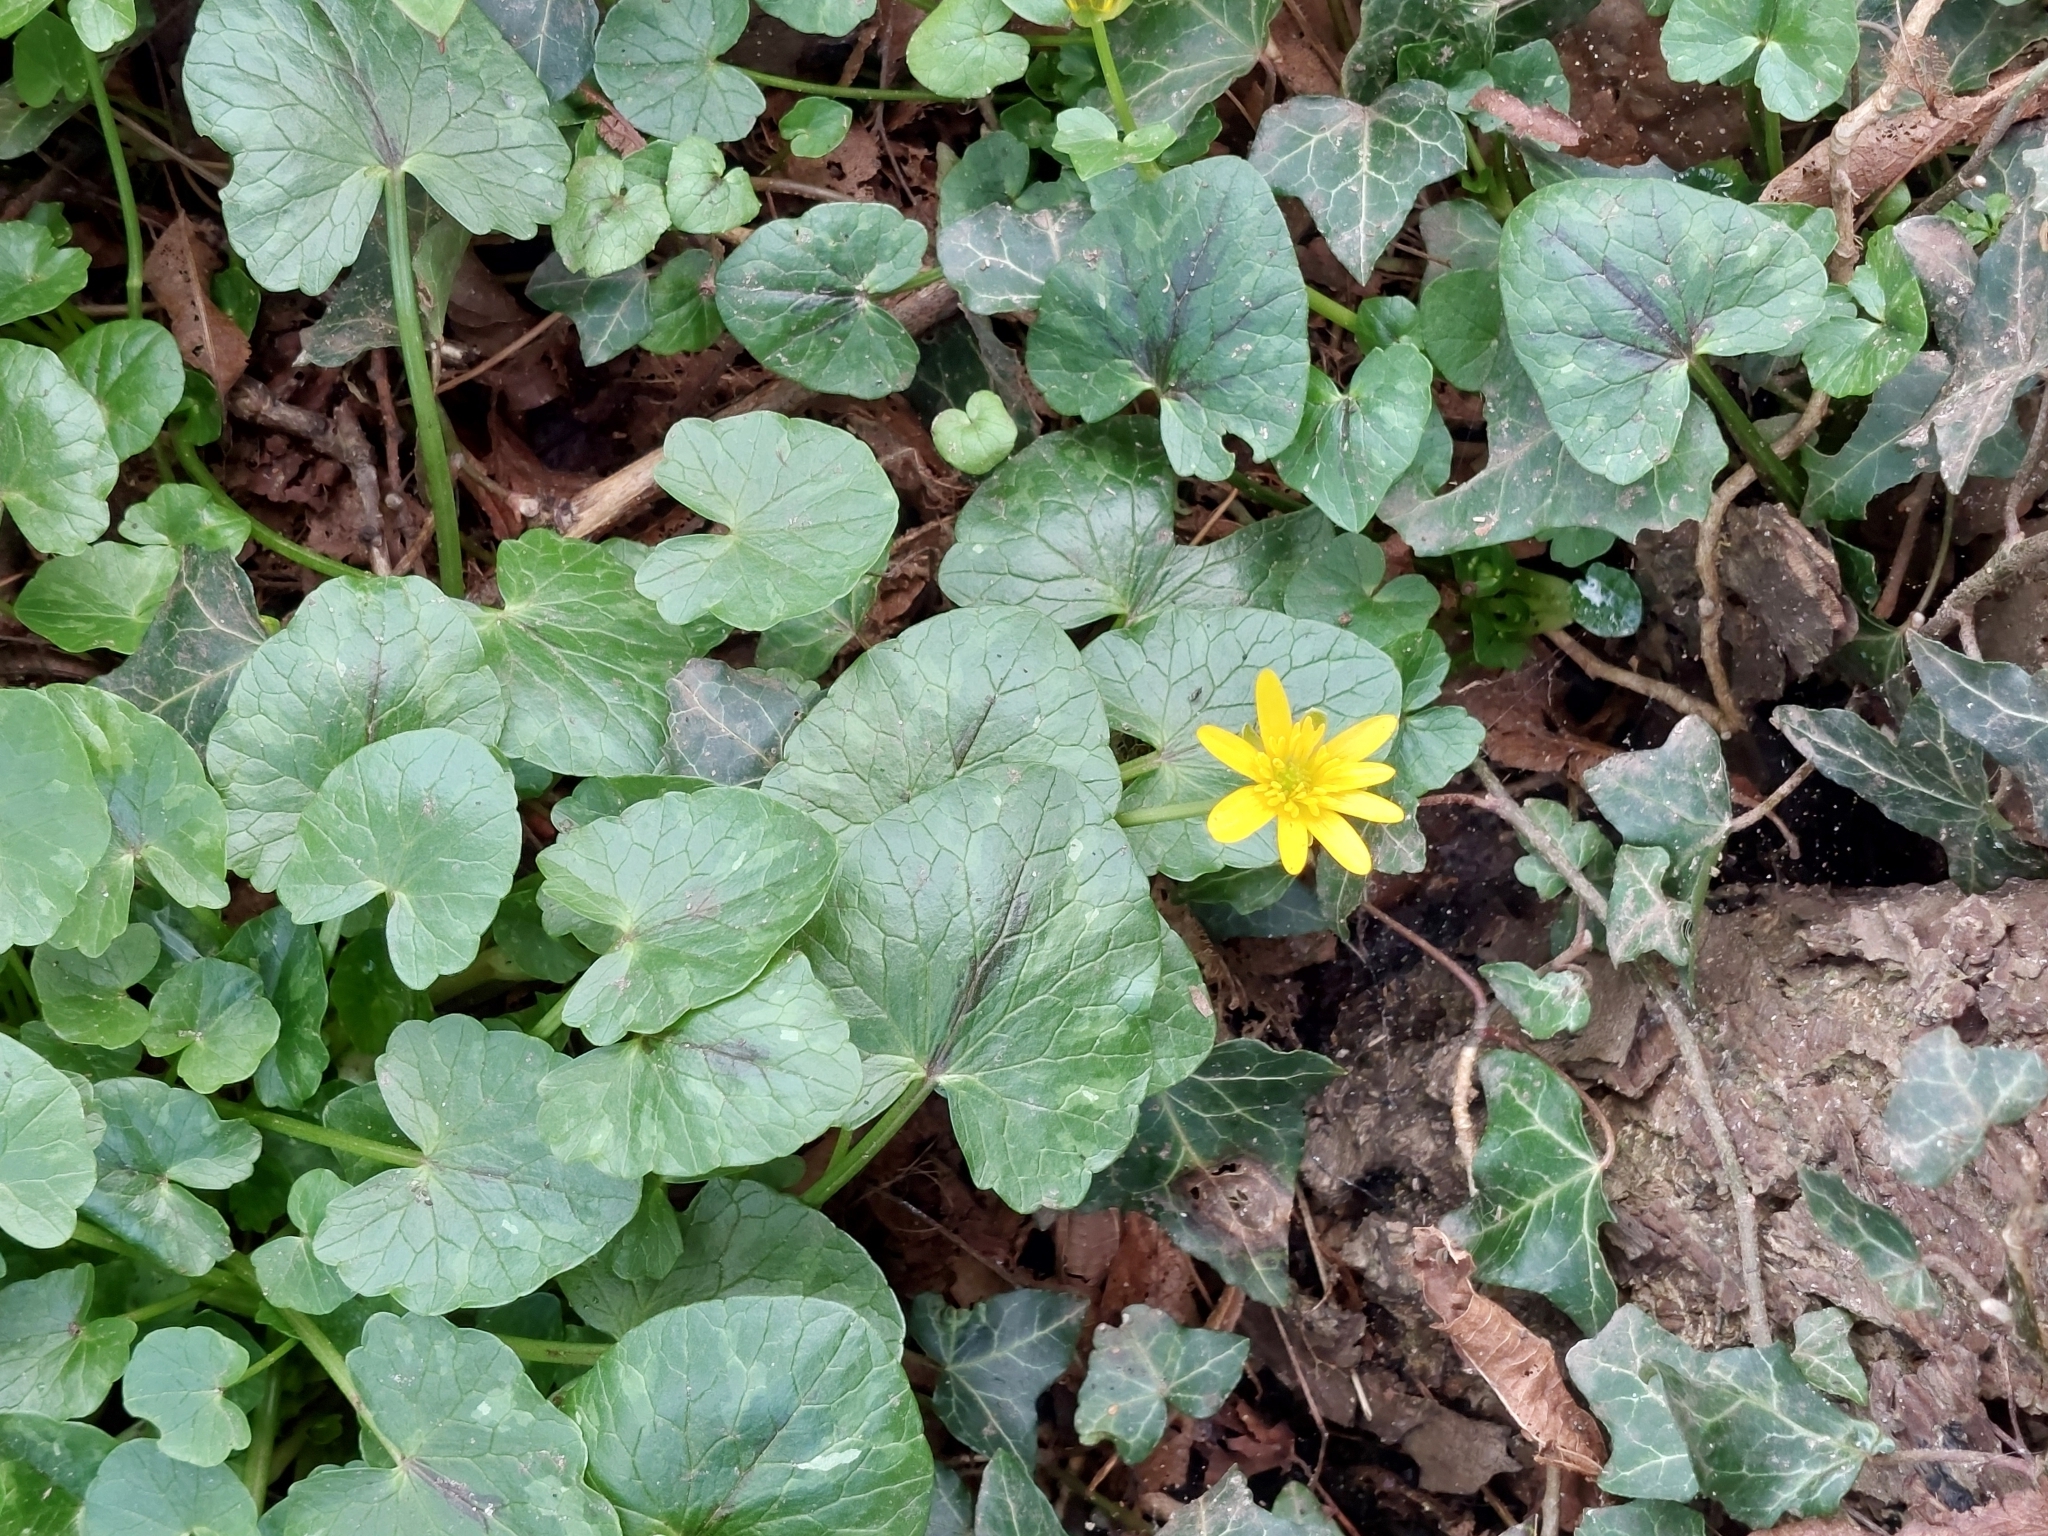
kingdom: Plantae
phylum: Tracheophyta
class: Magnoliopsida
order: Ranunculales
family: Ranunculaceae
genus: Ficaria
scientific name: Ficaria verna
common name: Lesser celandine
